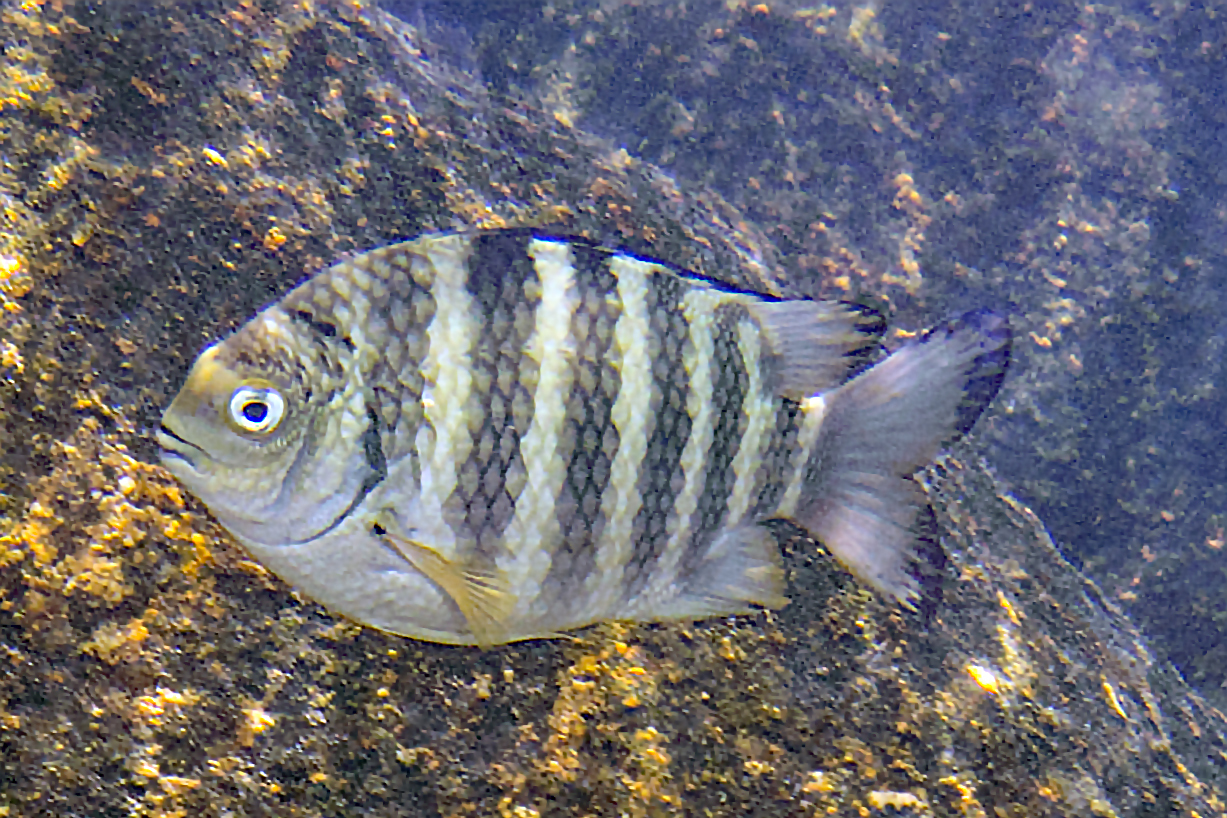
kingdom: Animalia
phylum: Chordata
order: Perciformes
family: Pomacentridae
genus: Abudefduf
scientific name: Abudefduf septemfasciatus
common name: Banded sergeant
